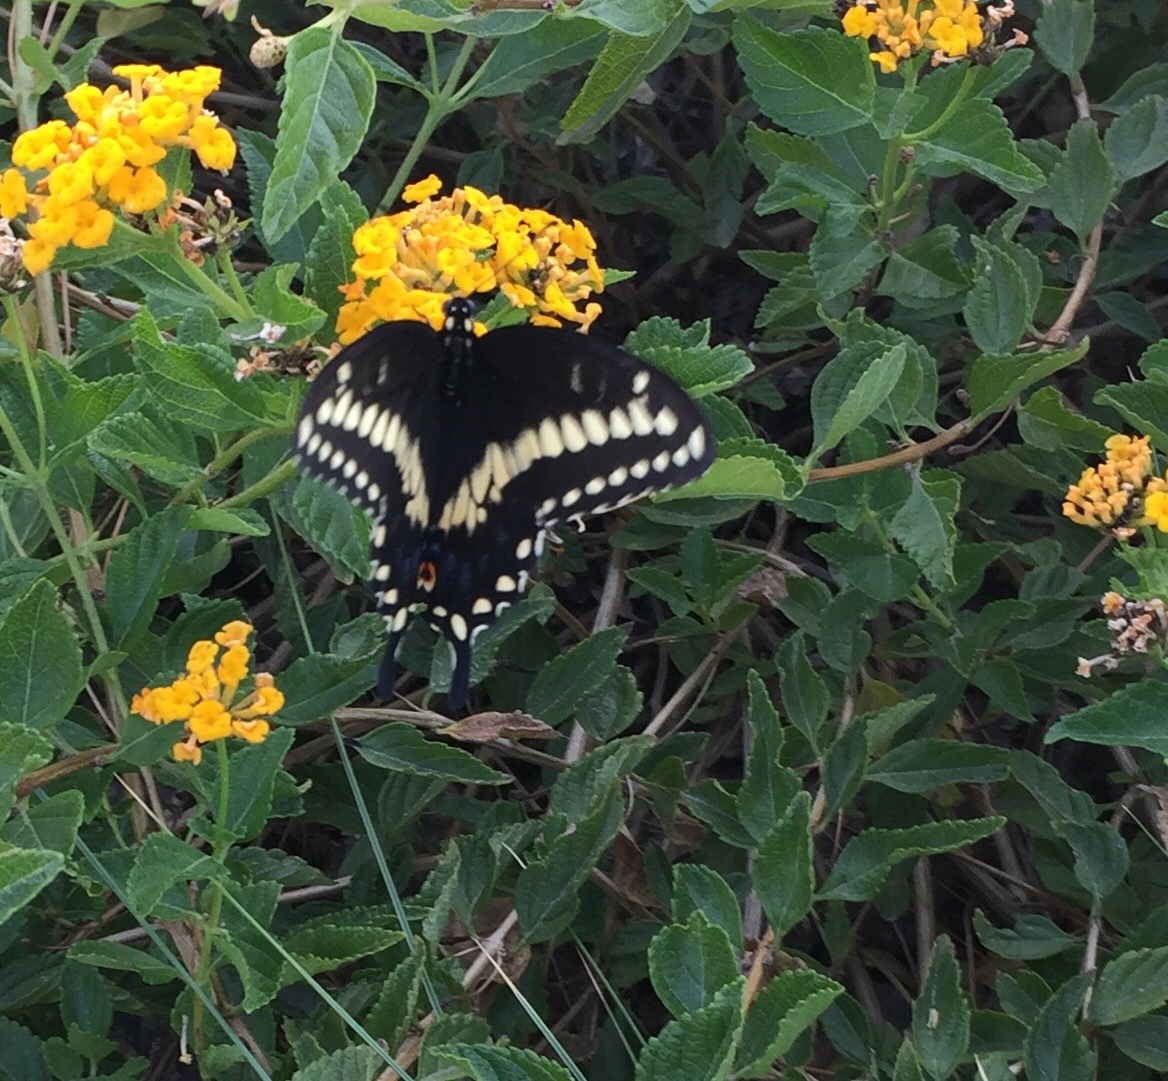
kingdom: Animalia
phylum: Arthropoda
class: Insecta
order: Lepidoptera
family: Papilionidae
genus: Papilio
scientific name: Papilio polyxenes
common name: Black swallowtail
